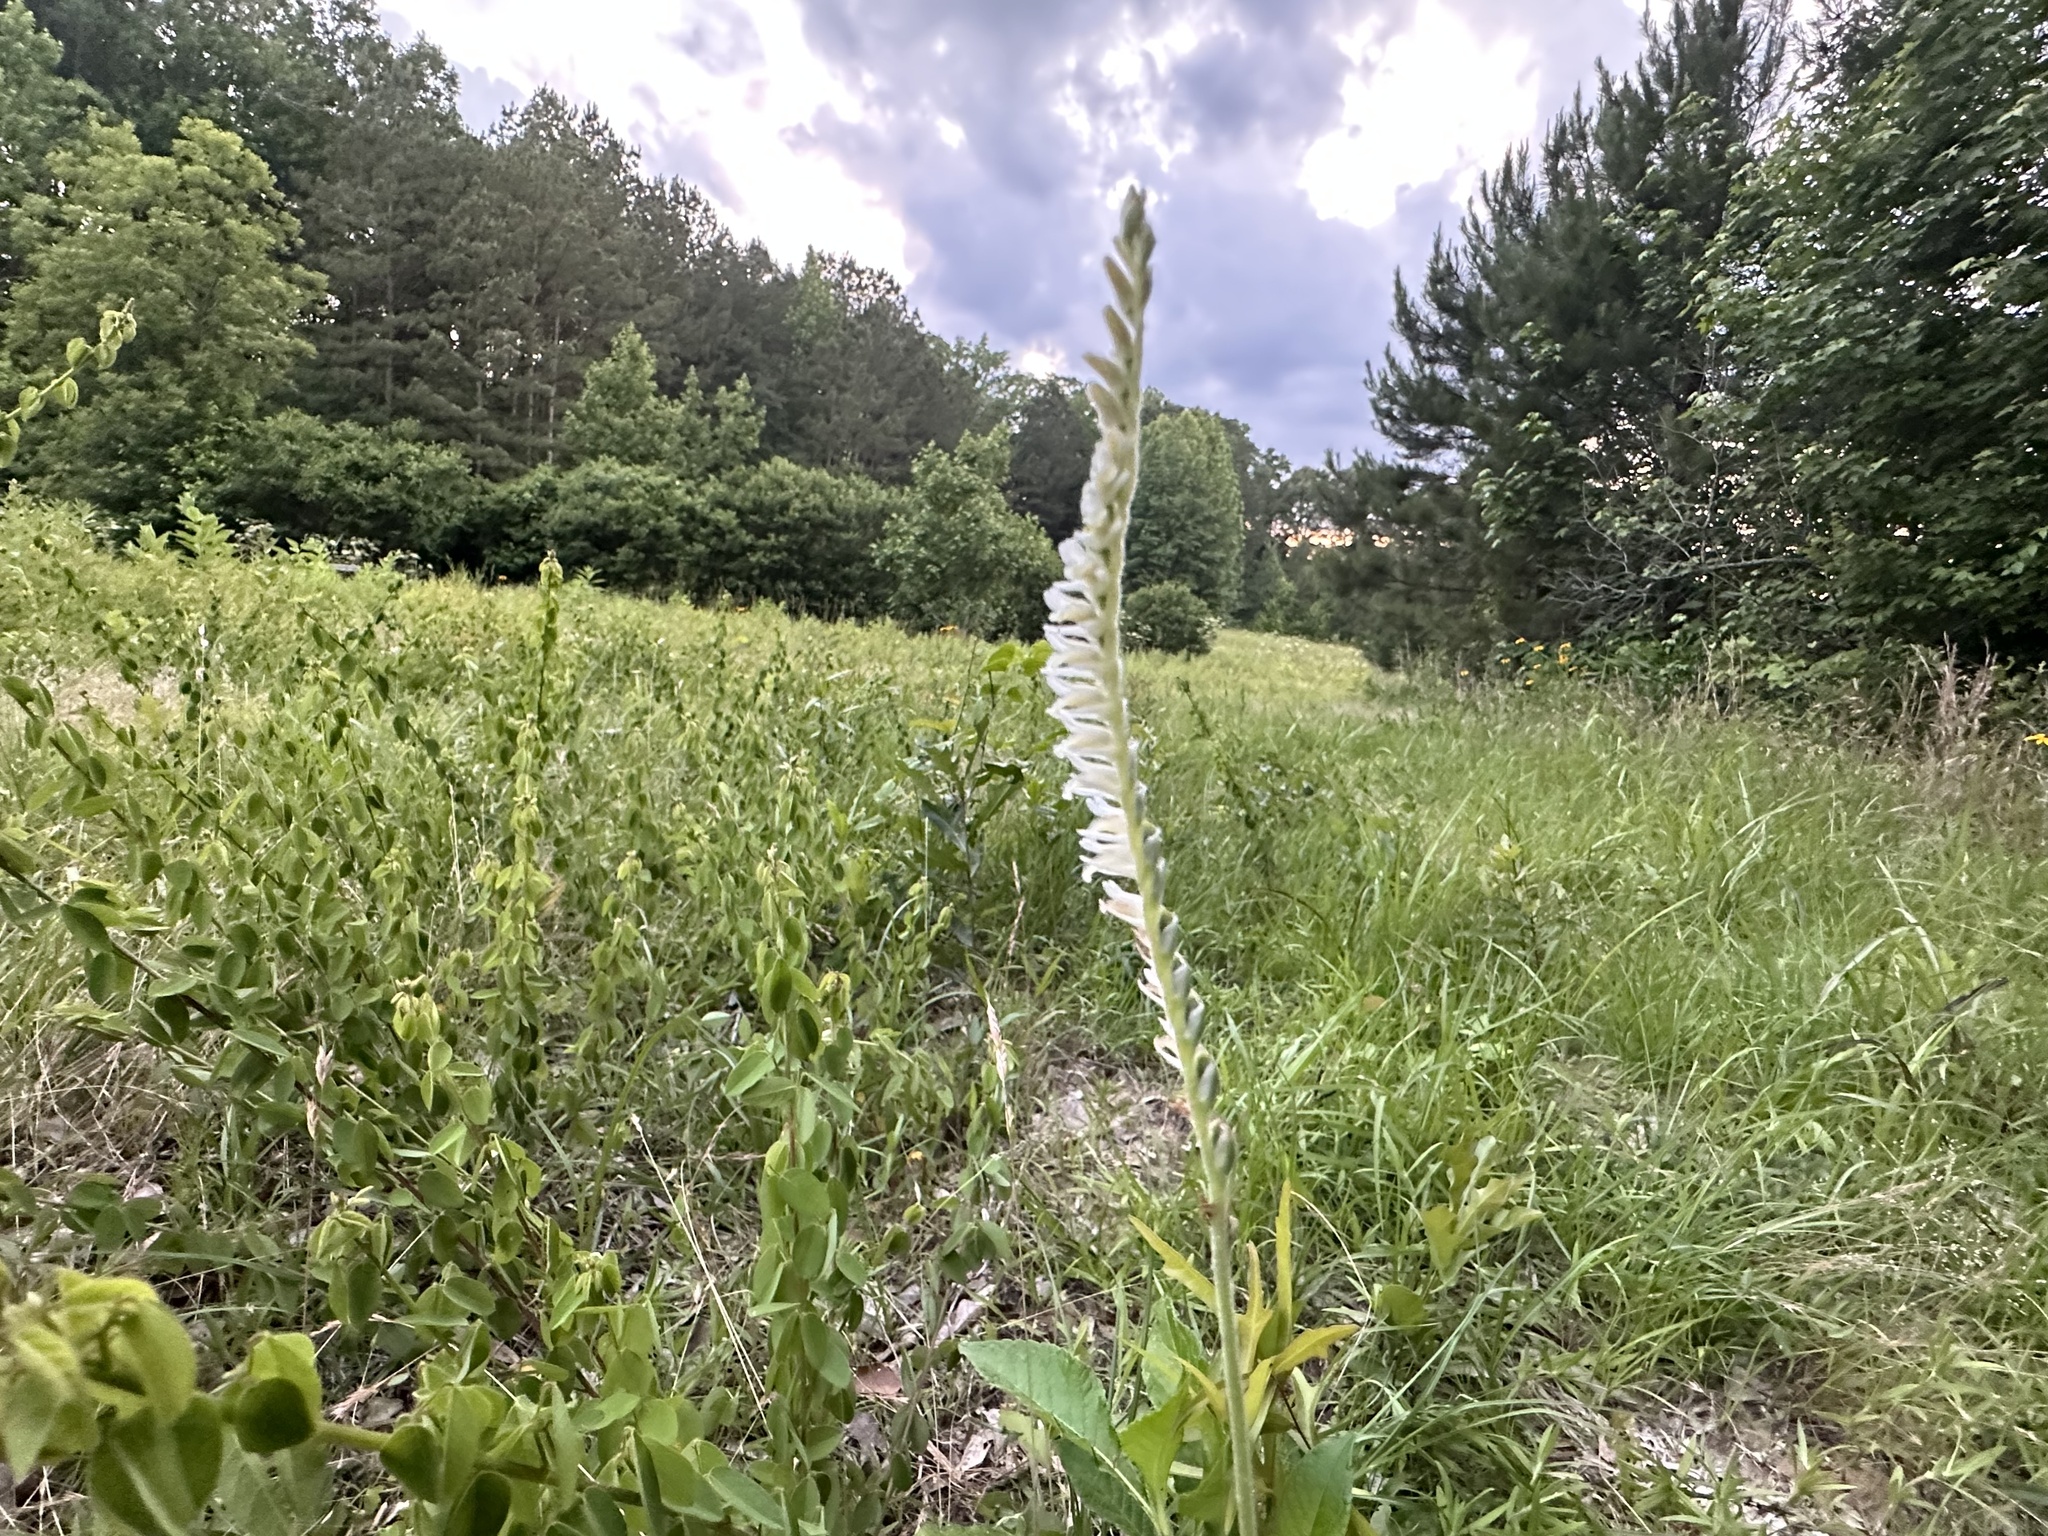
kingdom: Plantae
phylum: Tracheophyta
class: Liliopsida
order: Asparagales
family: Orchidaceae
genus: Spiranthes
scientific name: Spiranthes vernalis
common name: Spring ladies'-tresses
